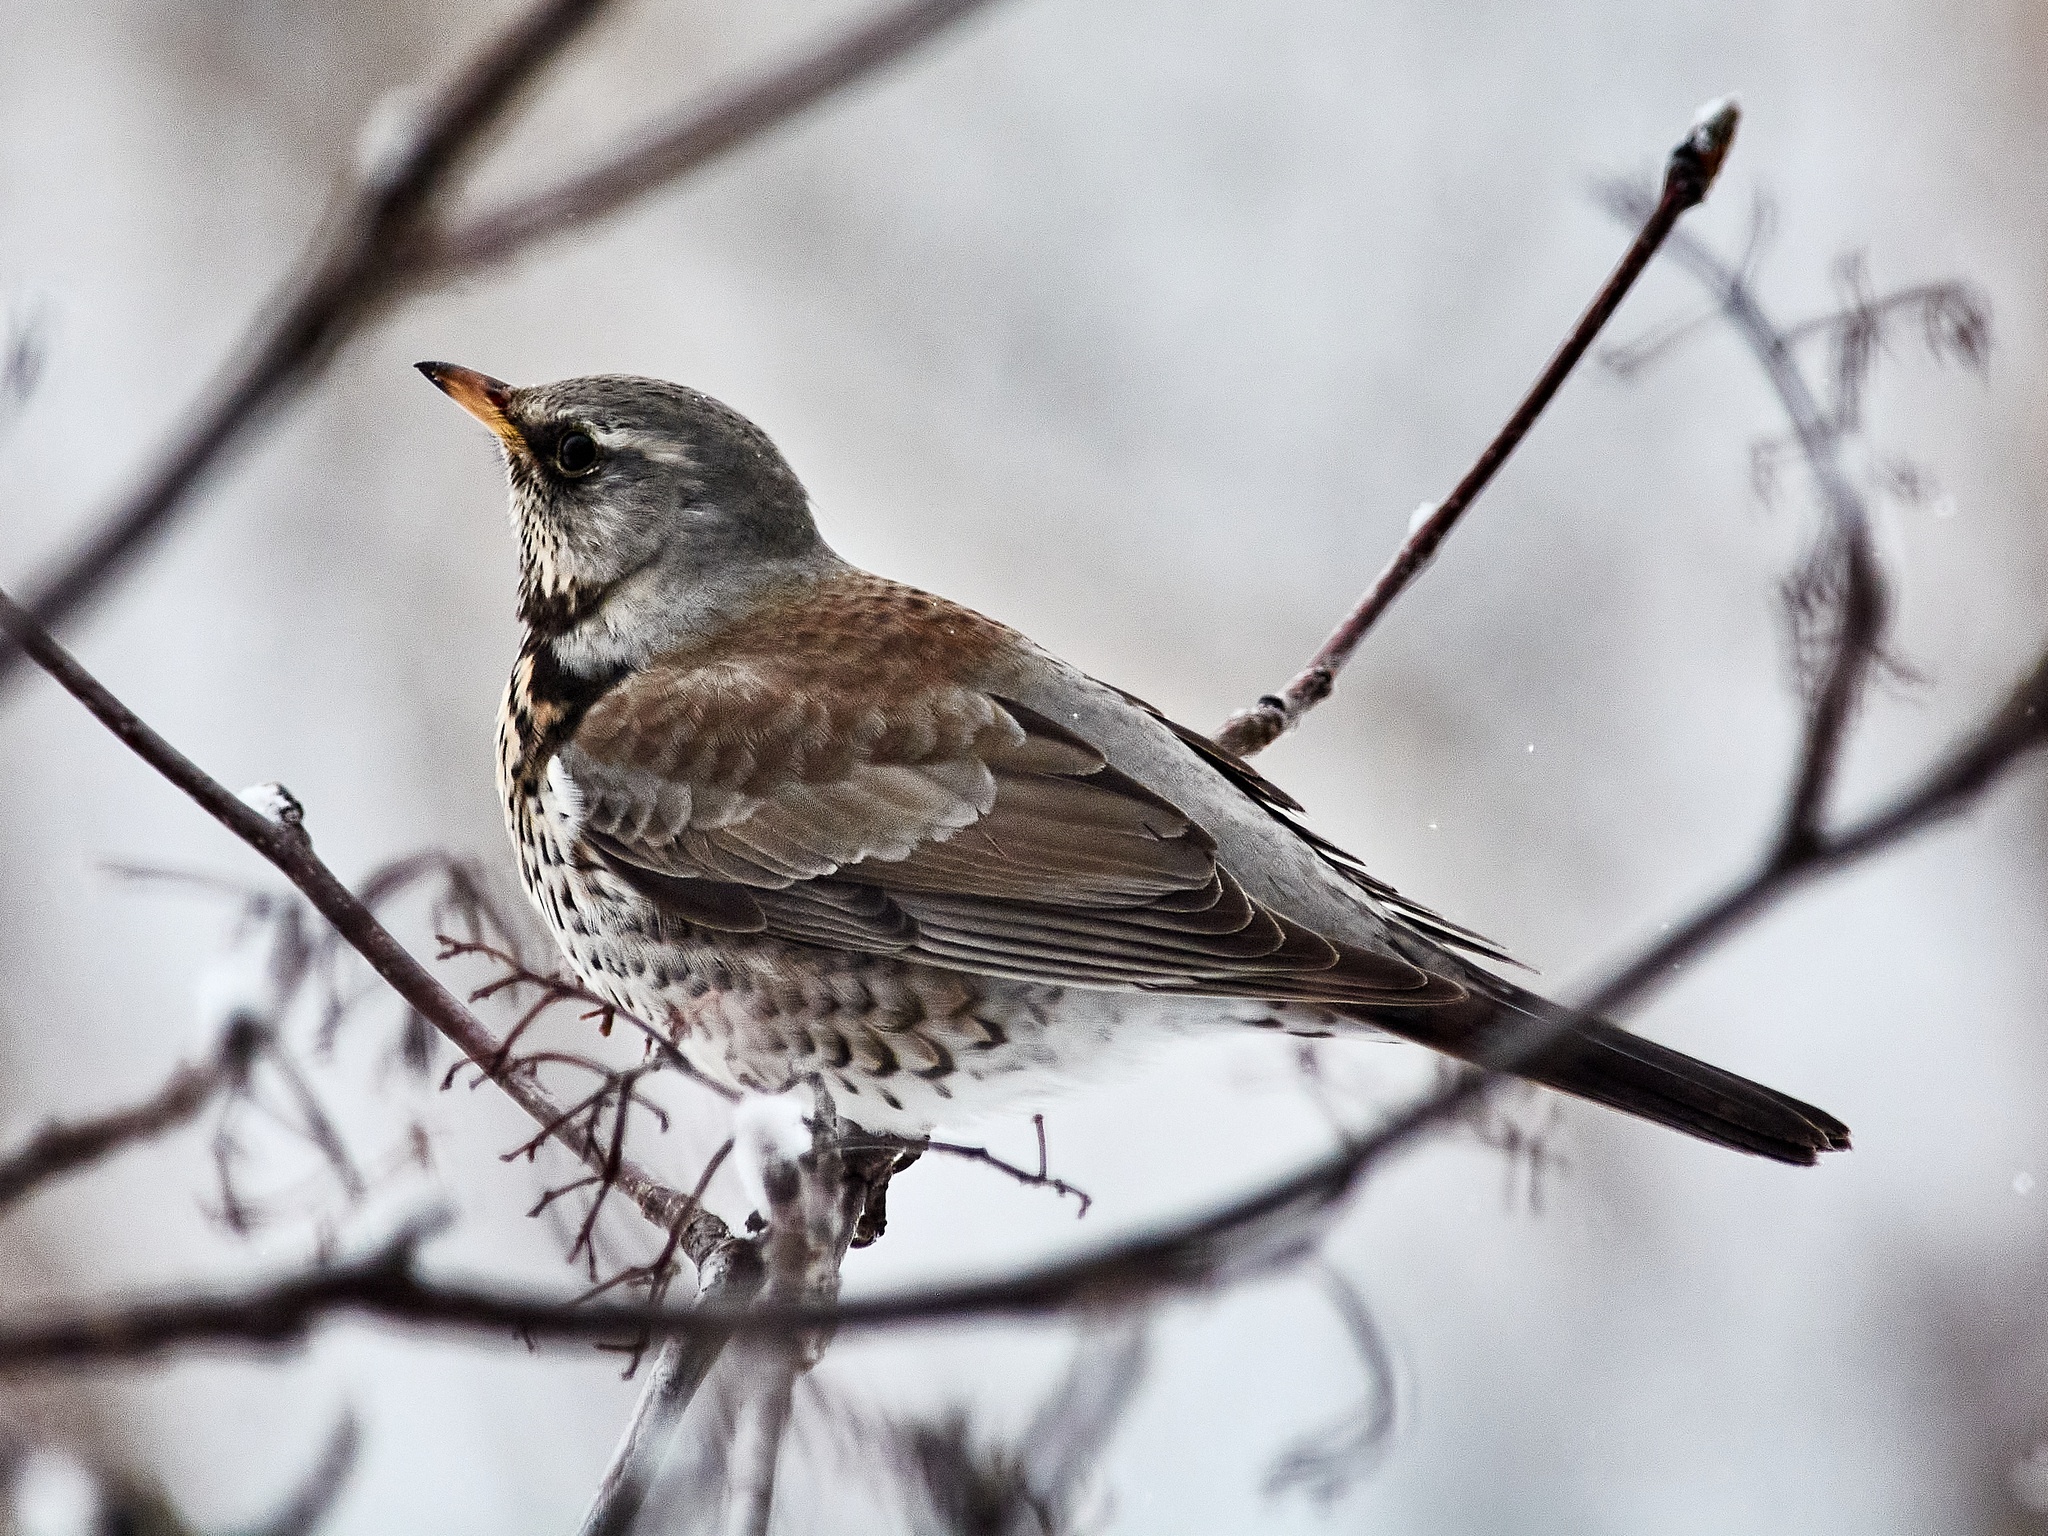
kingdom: Animalia
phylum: Chordata
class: Aves
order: Passeriformes
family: Turdidae
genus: Turdus
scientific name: Turdus pilaris
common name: Fieldfare
